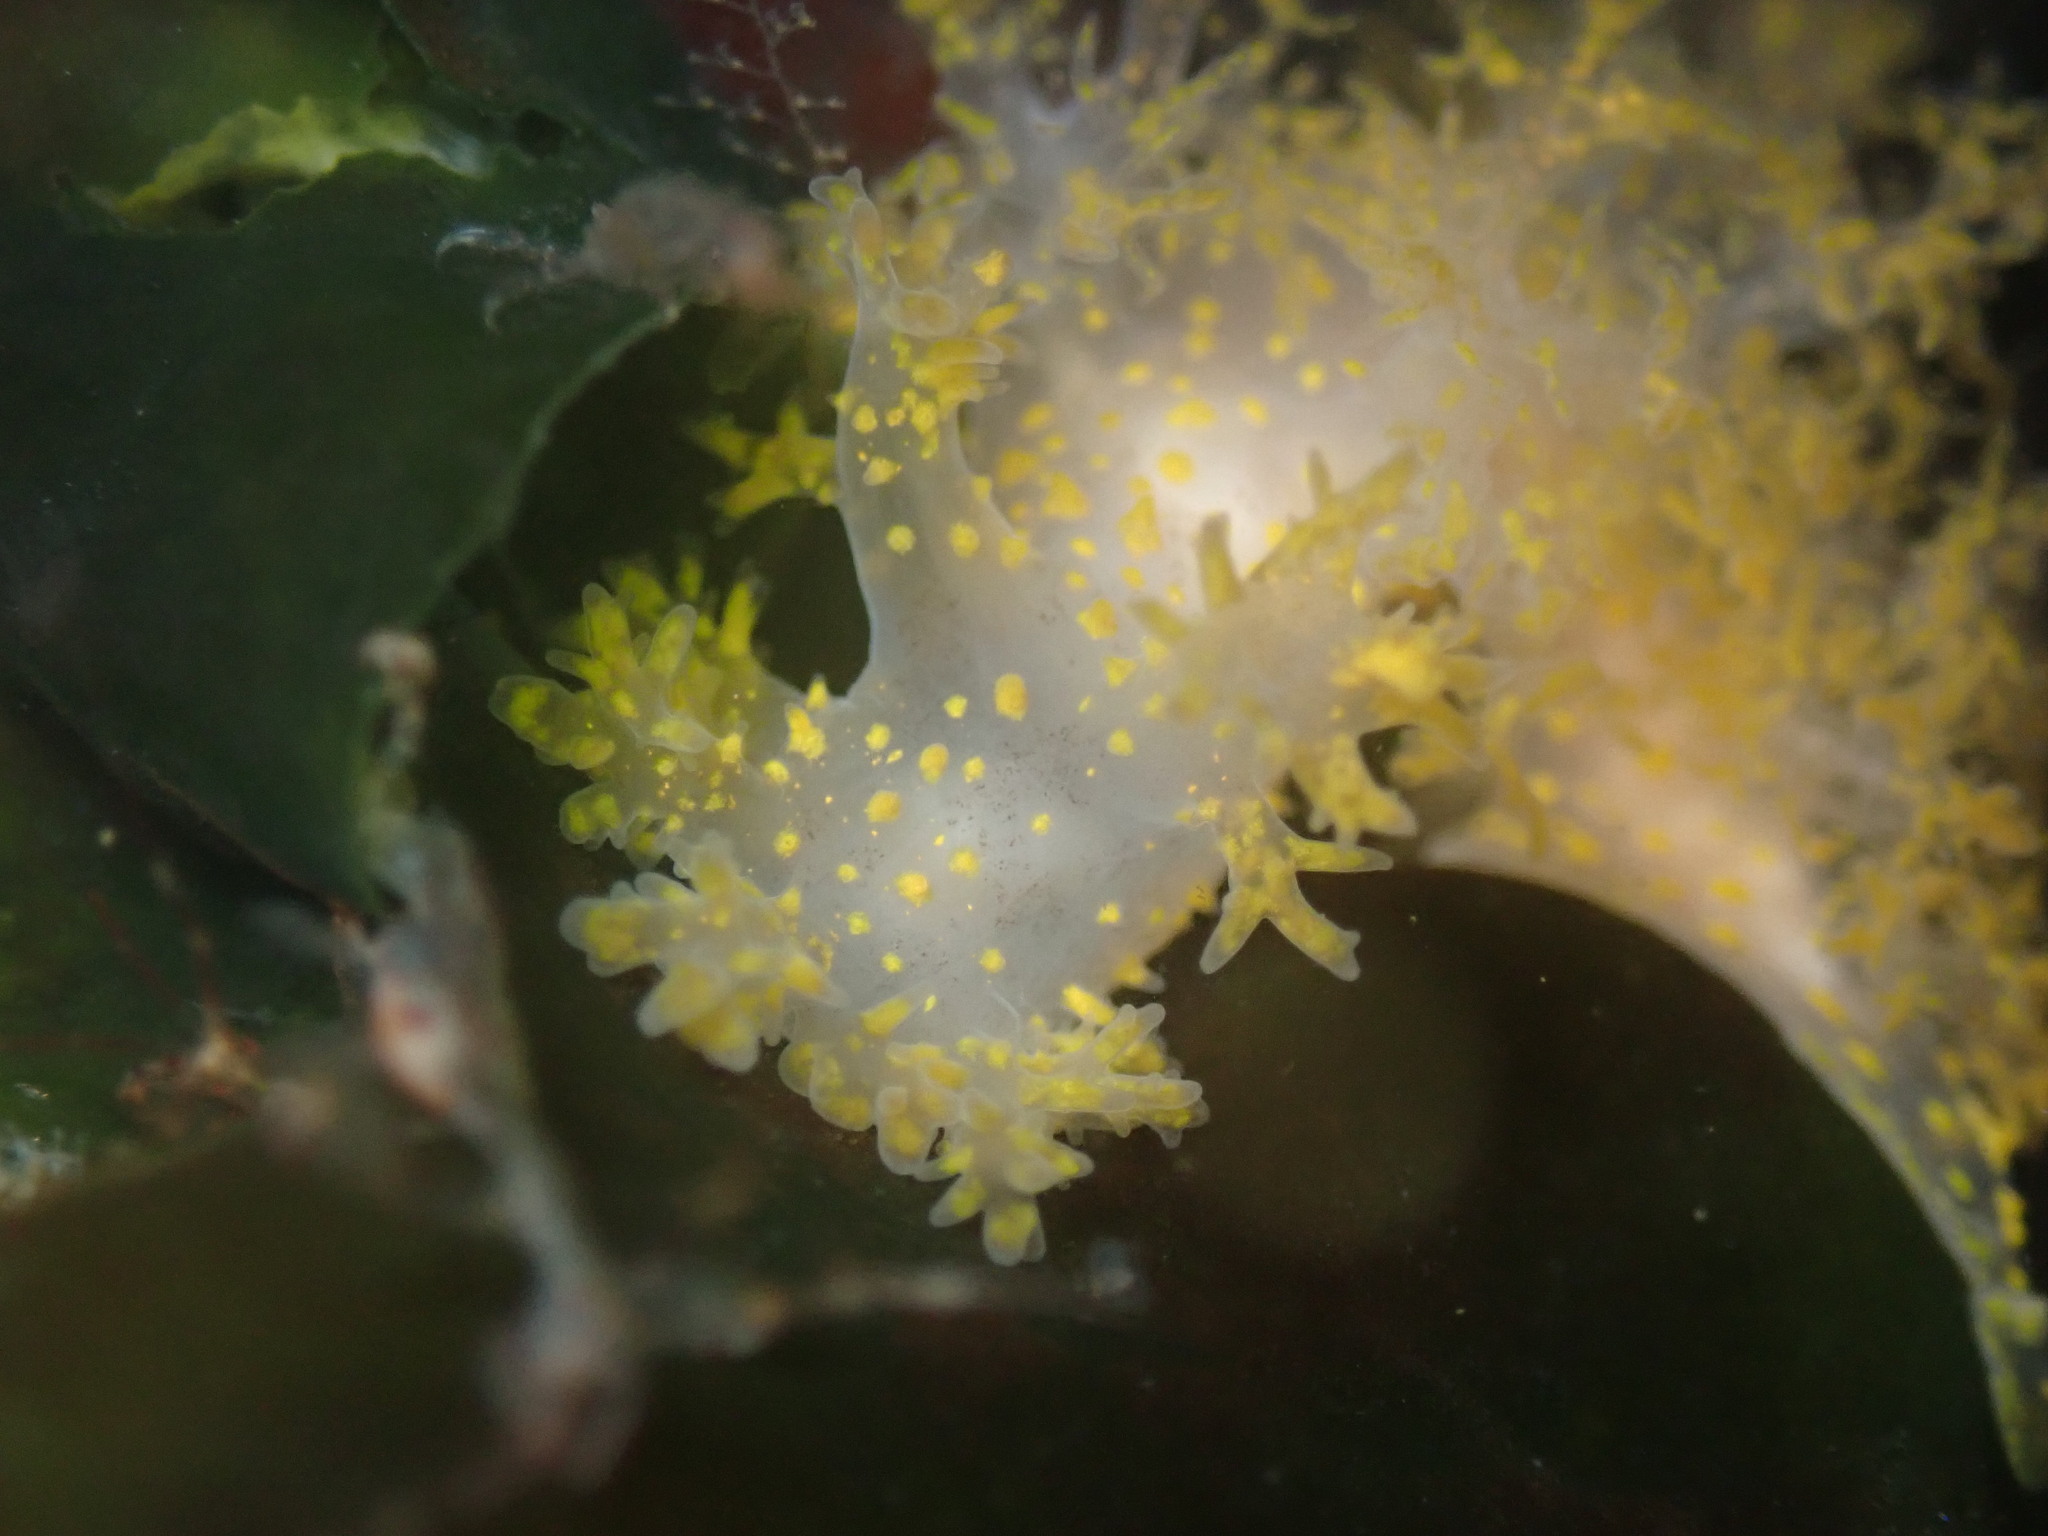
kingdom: Animalia
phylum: Mollusca
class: Gastropoda
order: Nudibranchia
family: Dendronotidae
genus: Dendronotus
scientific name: Dendronotus venustus
